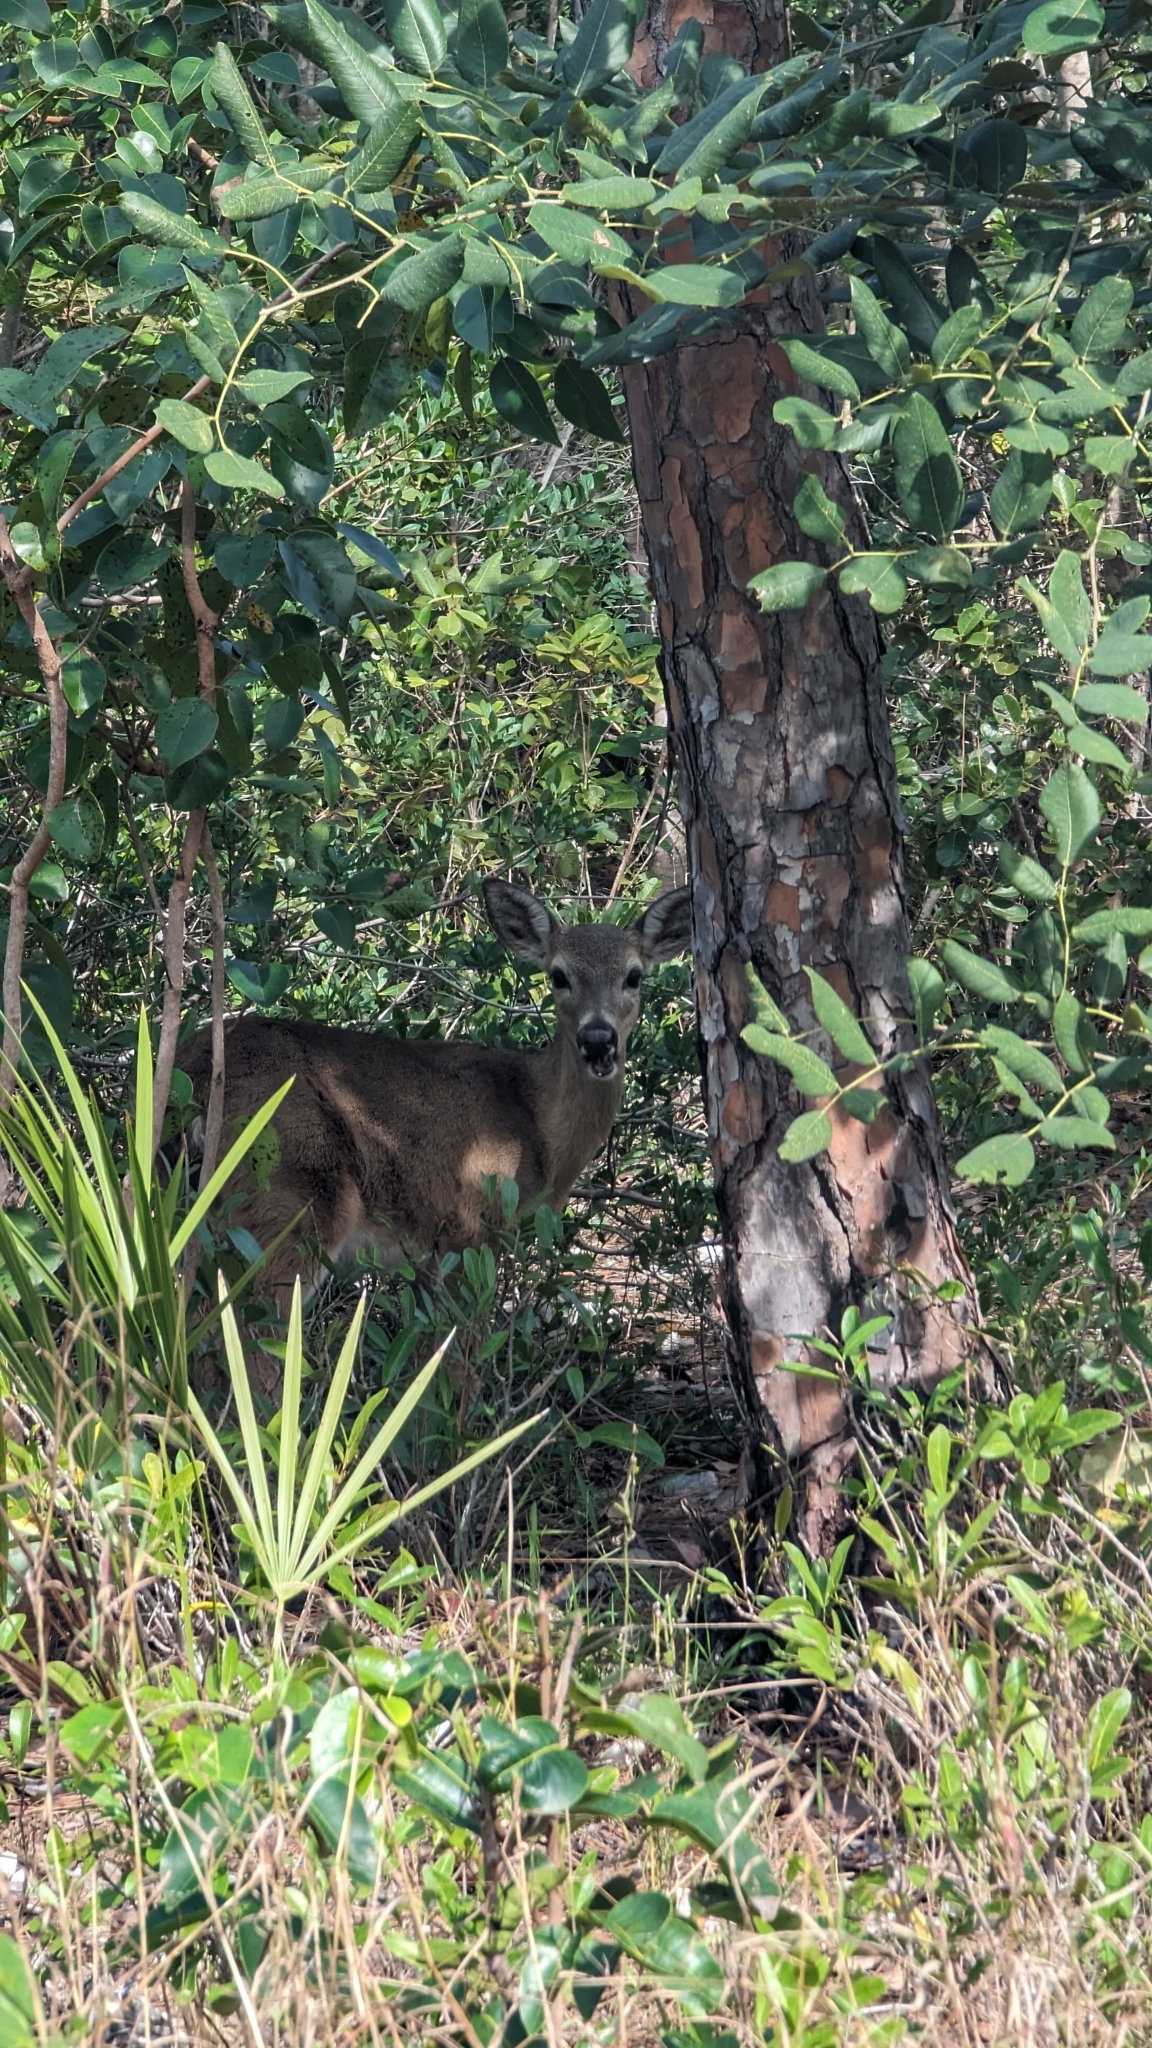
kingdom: Animalia
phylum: Chordata
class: Mammalia
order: Artiodactyla
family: Cervidae
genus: Odocoileus
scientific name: Odocoileus virginianus
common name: White-tailed deer
